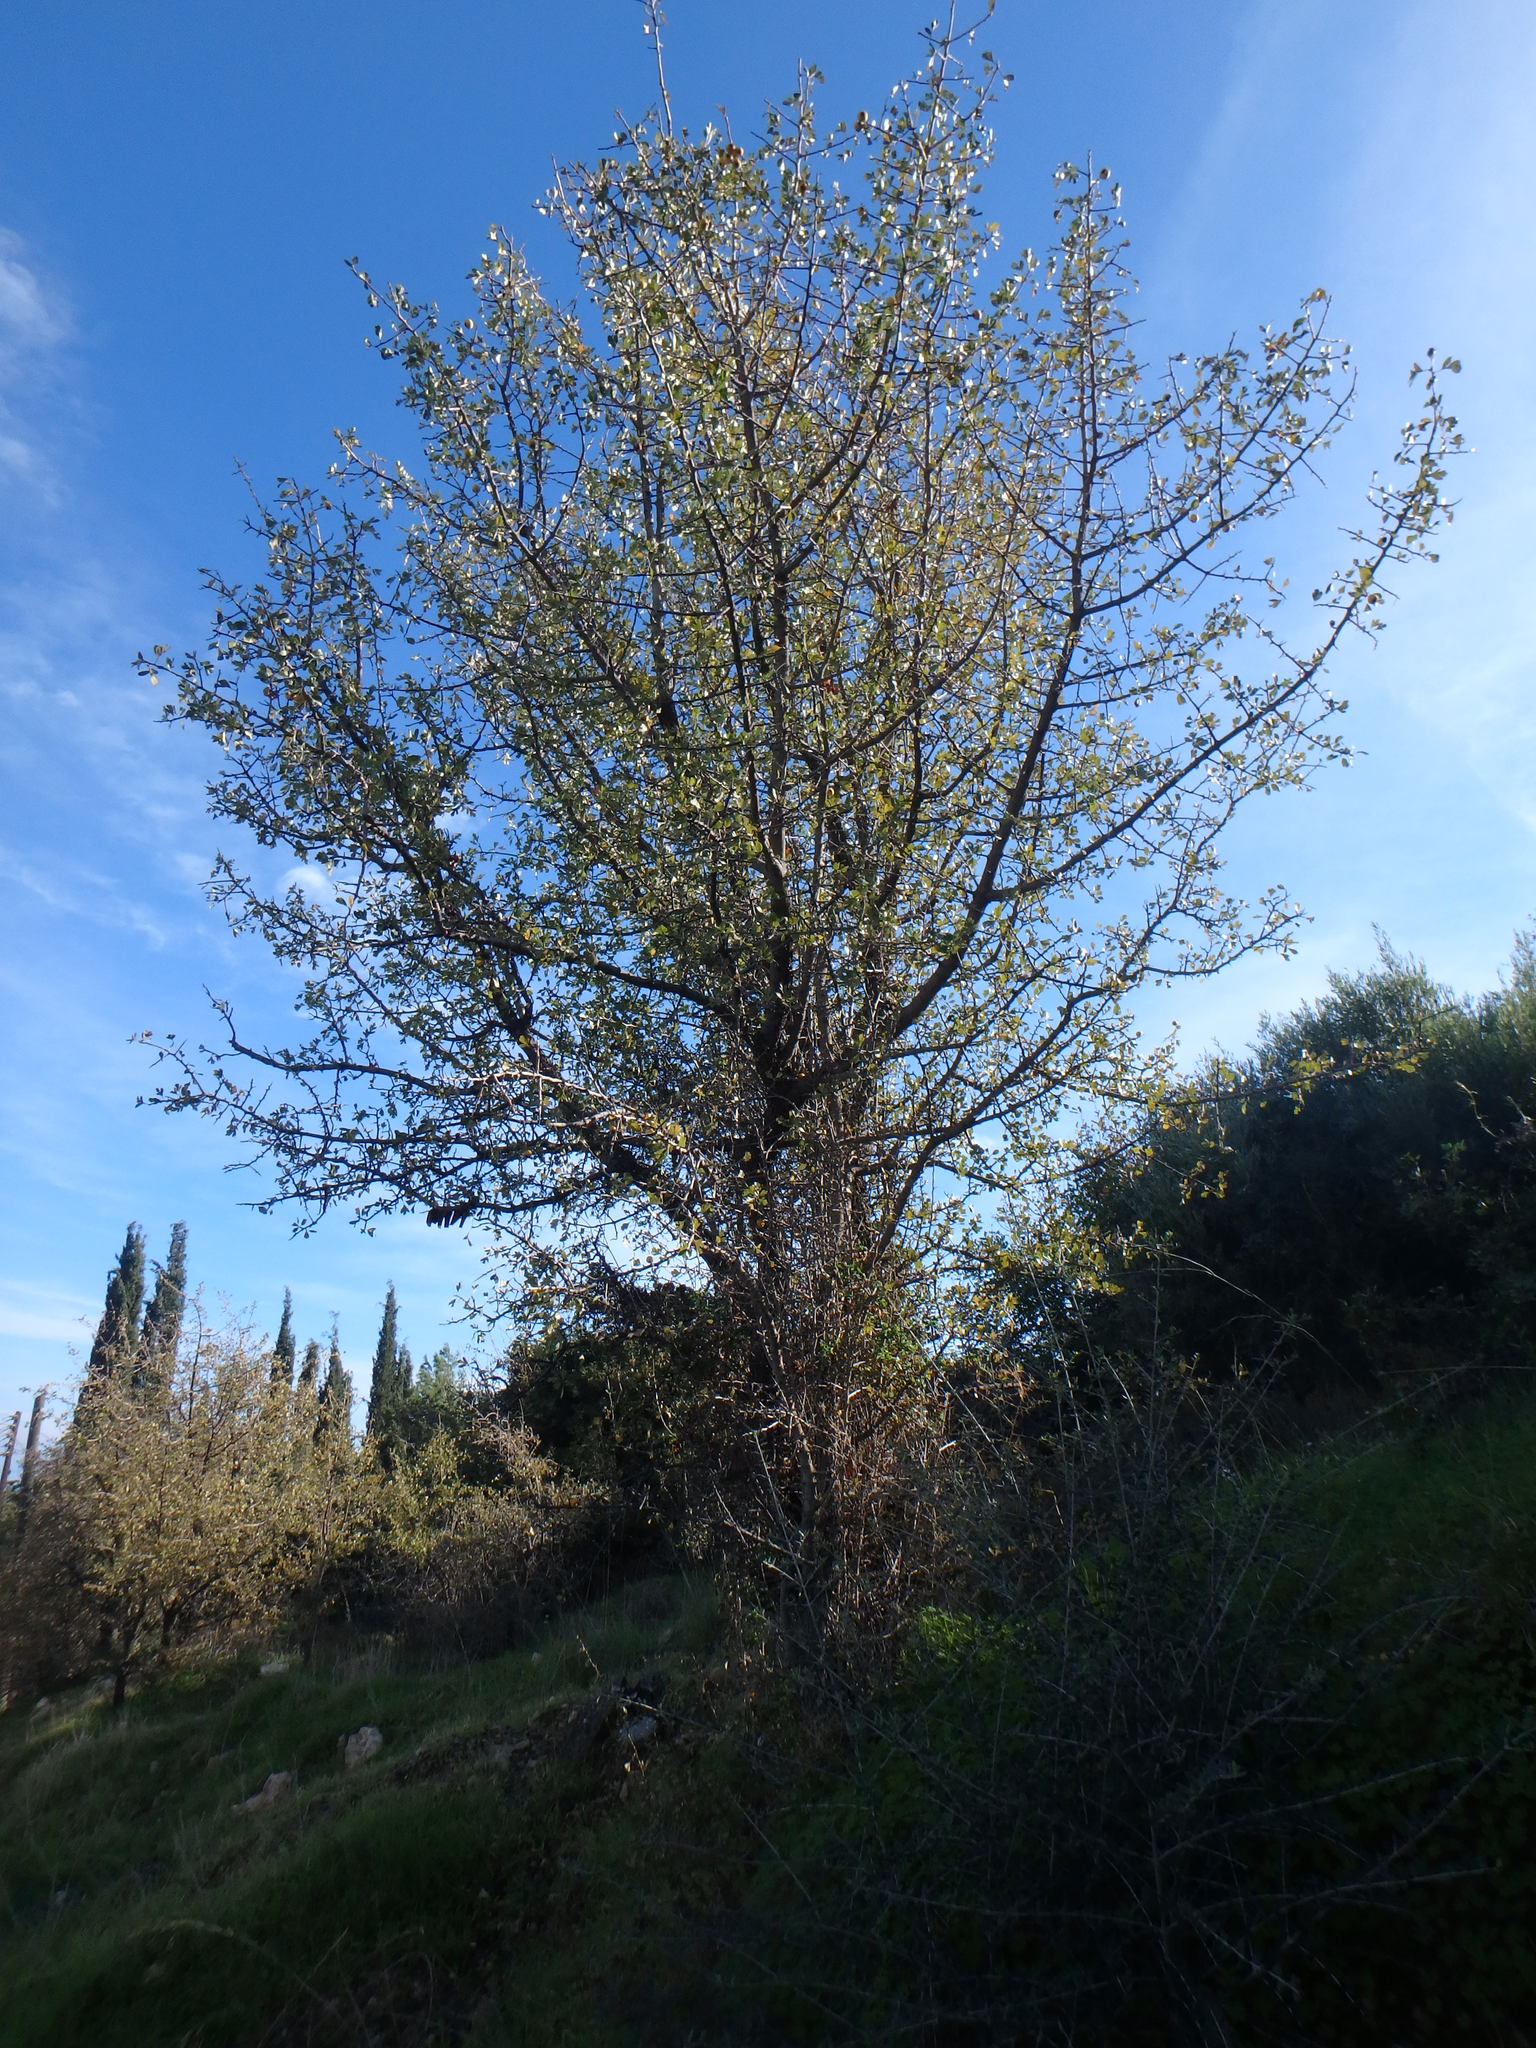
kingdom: Plantae
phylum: Tracheophyta
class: Magnoliopsida
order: Rosales
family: Rosaceae
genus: Crataegus
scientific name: Crataegus azarolus
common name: Azarole
